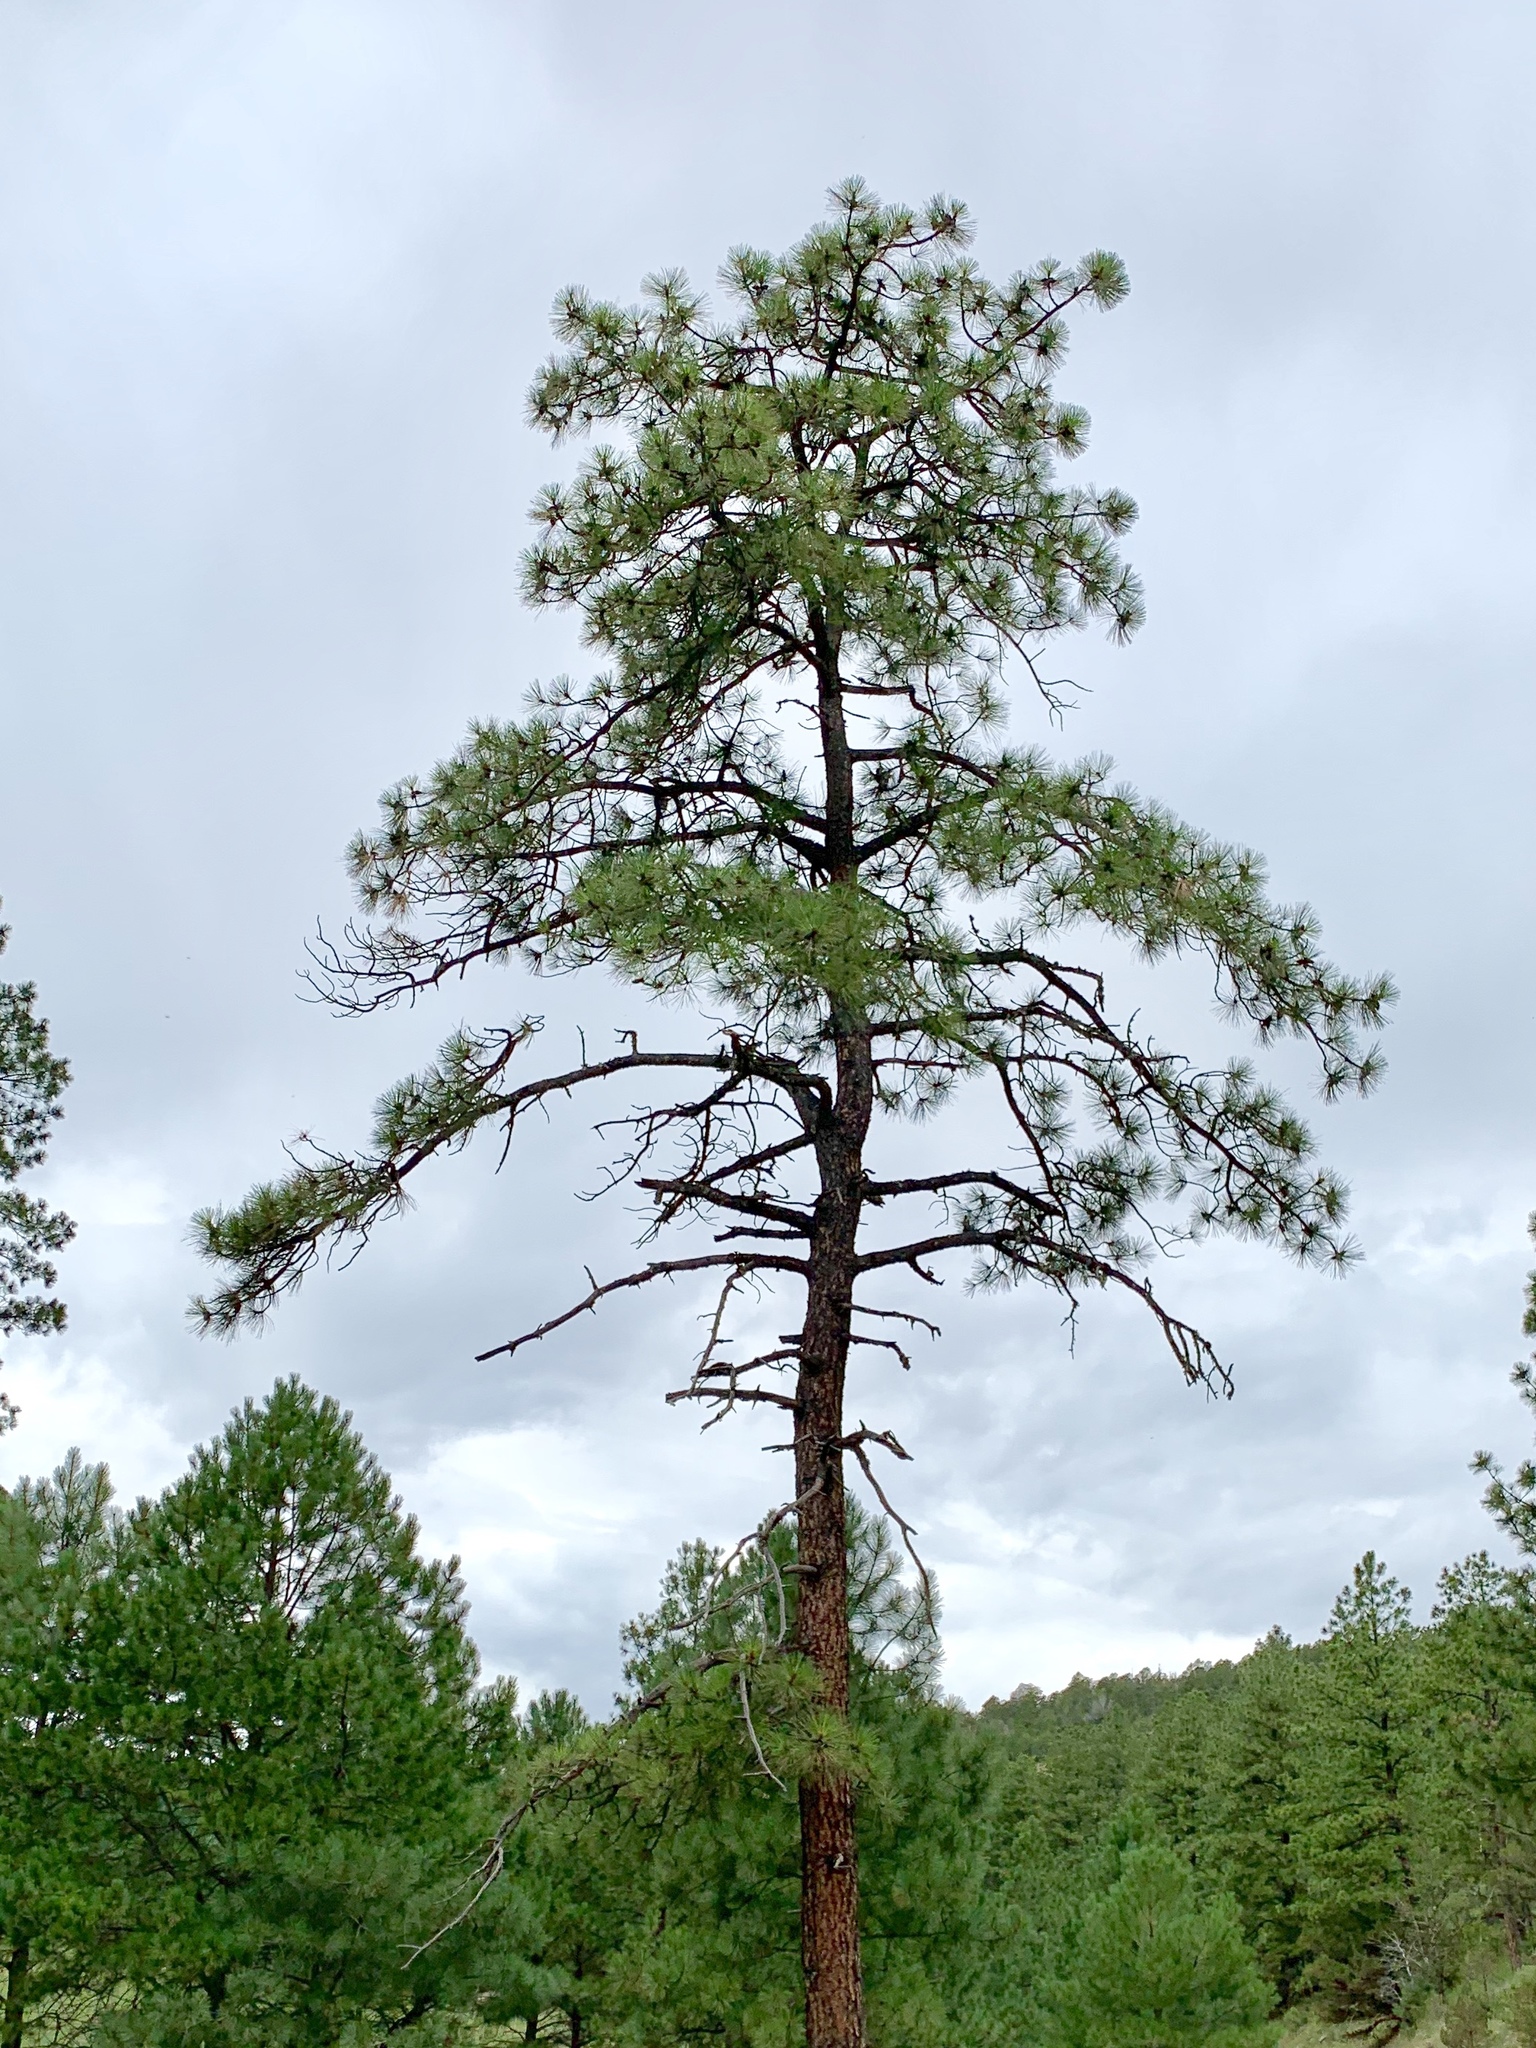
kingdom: Plantae
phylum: Tracheophyta
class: Pinopsida
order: Pinales
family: Pinaceae
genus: Pinus
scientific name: Pinus ponderosa
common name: Western yellow-pine
